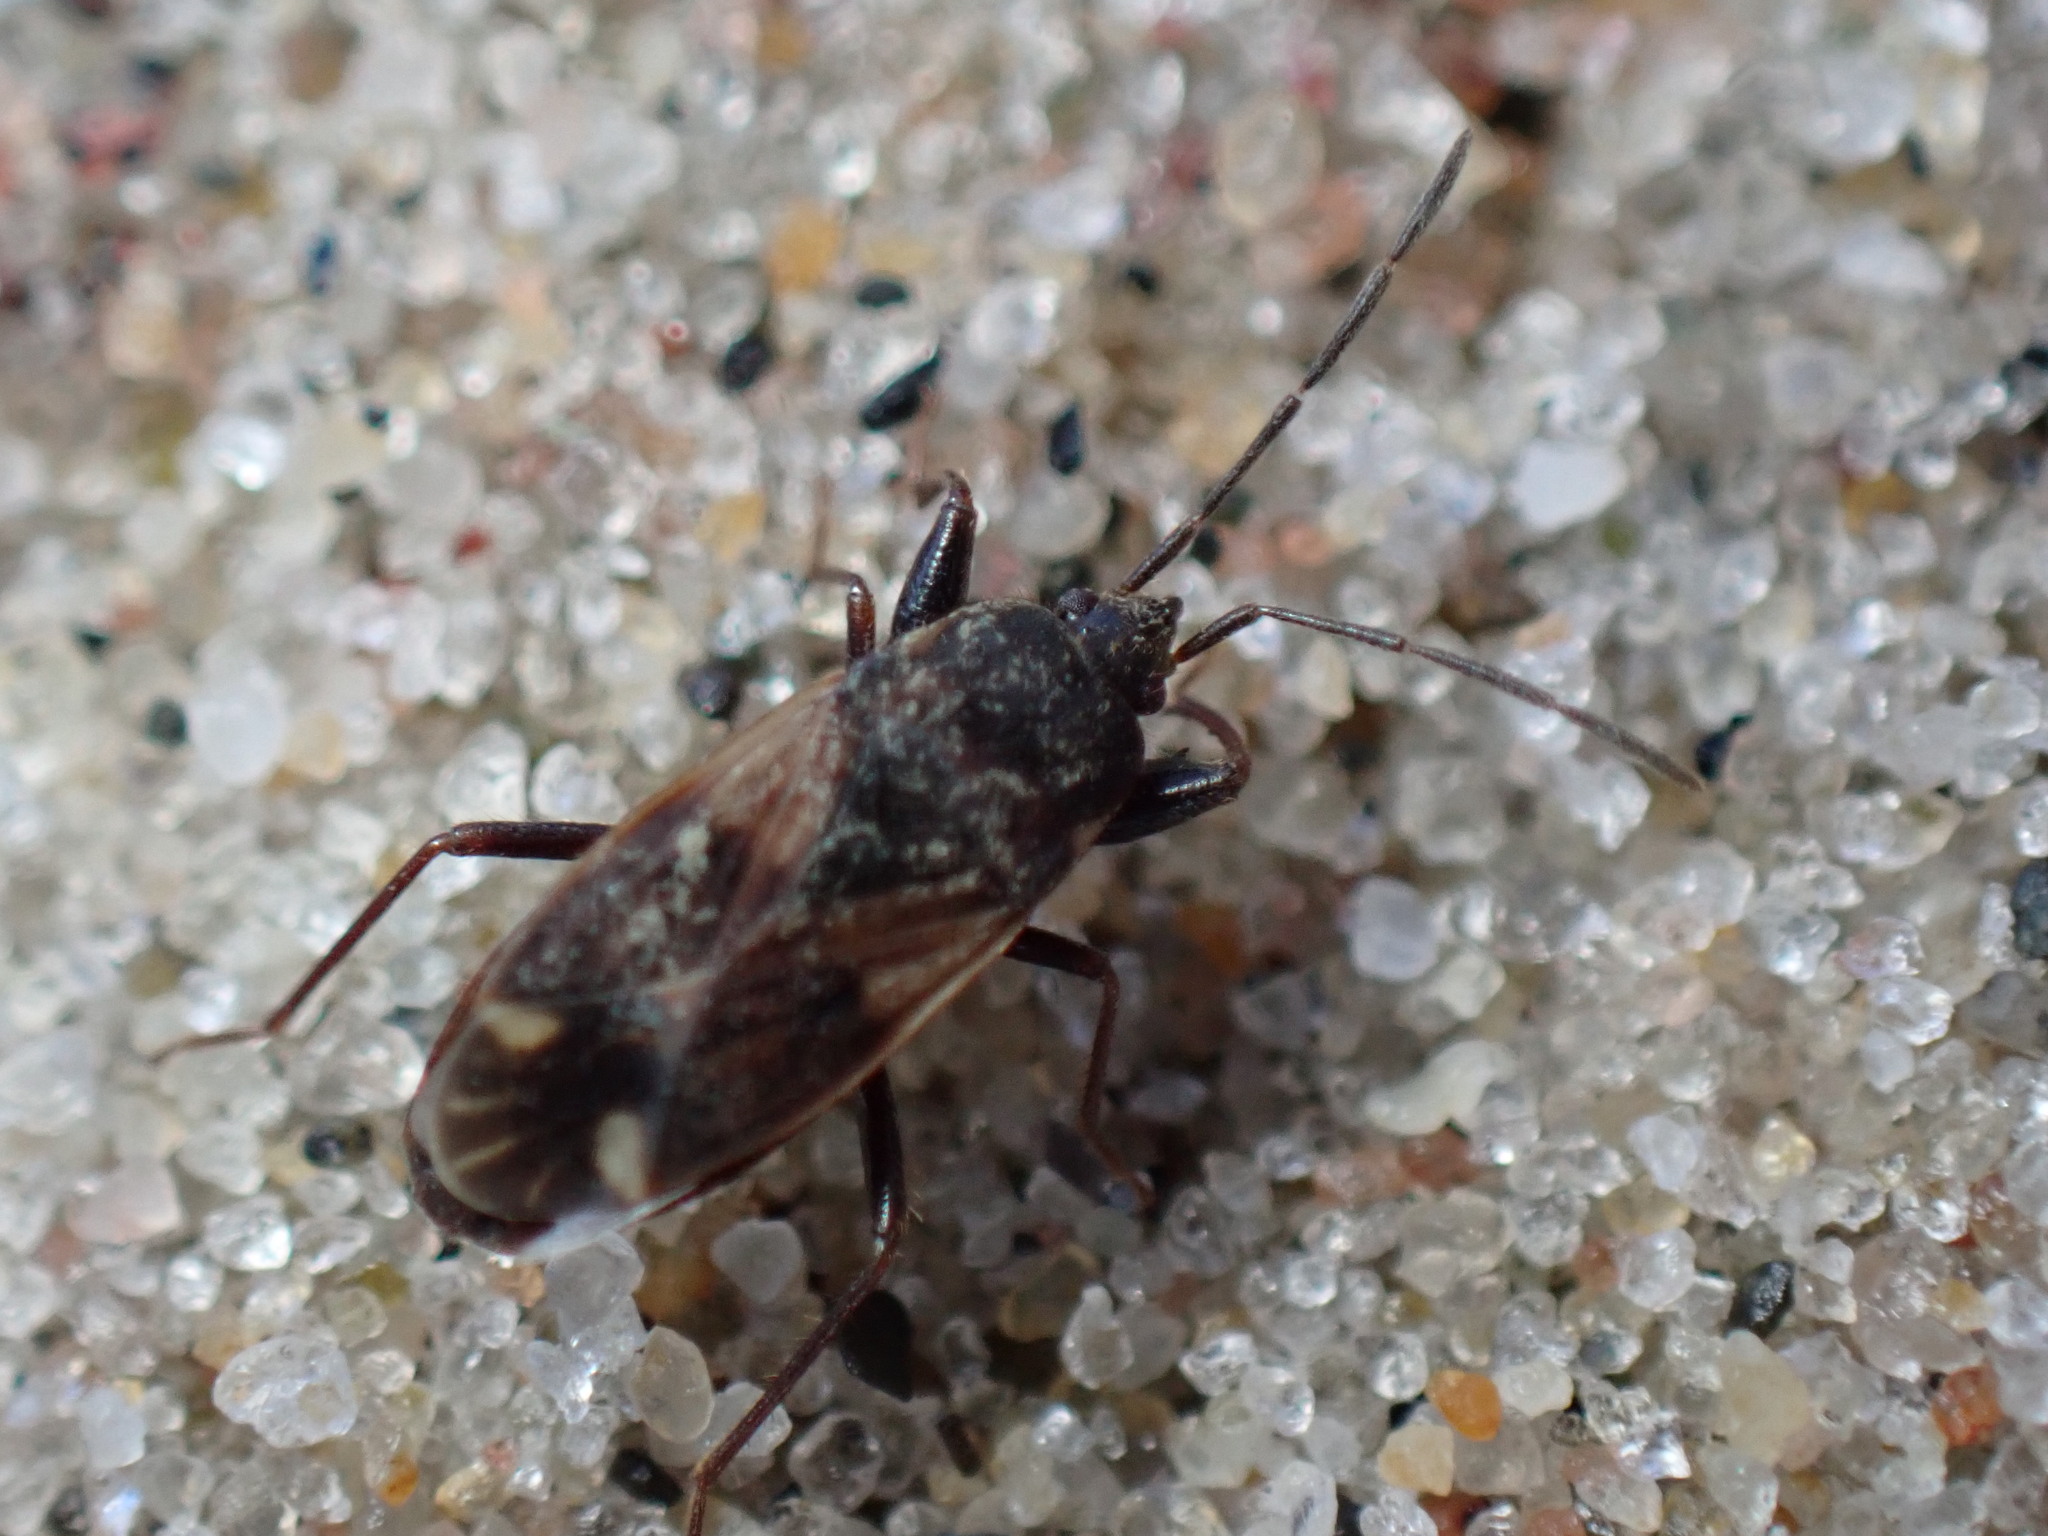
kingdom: Animalia
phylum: Arthropoda
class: Insecta
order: Hemiptera
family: Rhyparochromidae
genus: Eremocoris
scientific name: Eremocoris ferus
